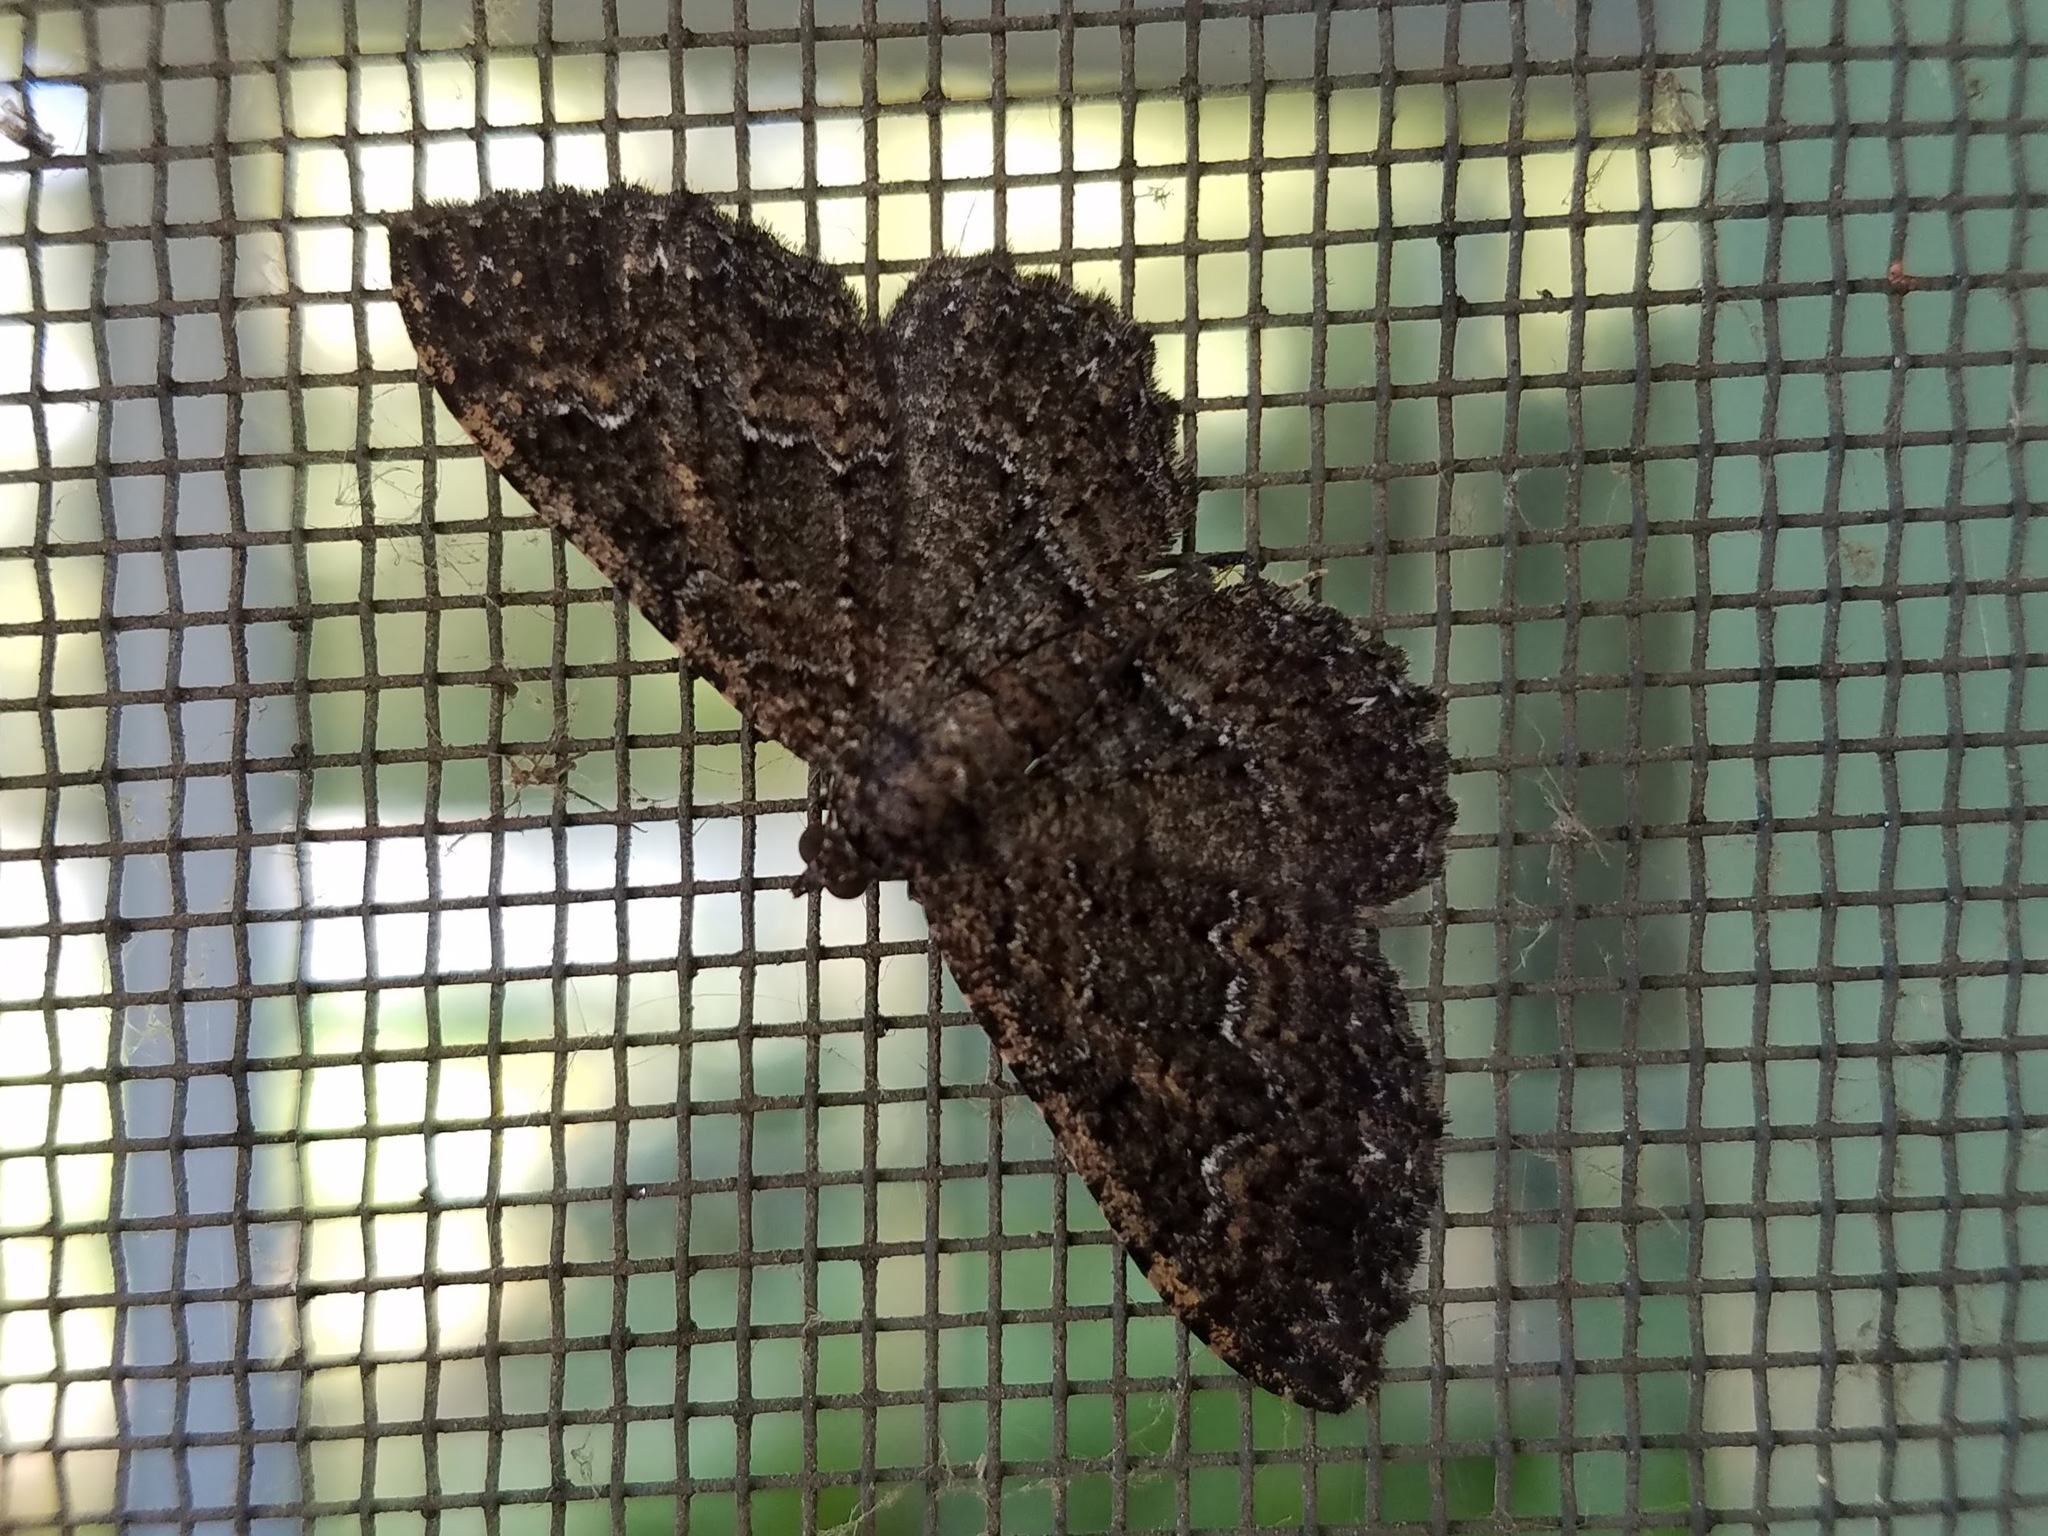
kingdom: Animalia
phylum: Arthropoda
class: Insecta
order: Lepidoptera
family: Geometridae
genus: Disclisioprocta
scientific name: Disclisioprocta stellata
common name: Somber carpet
